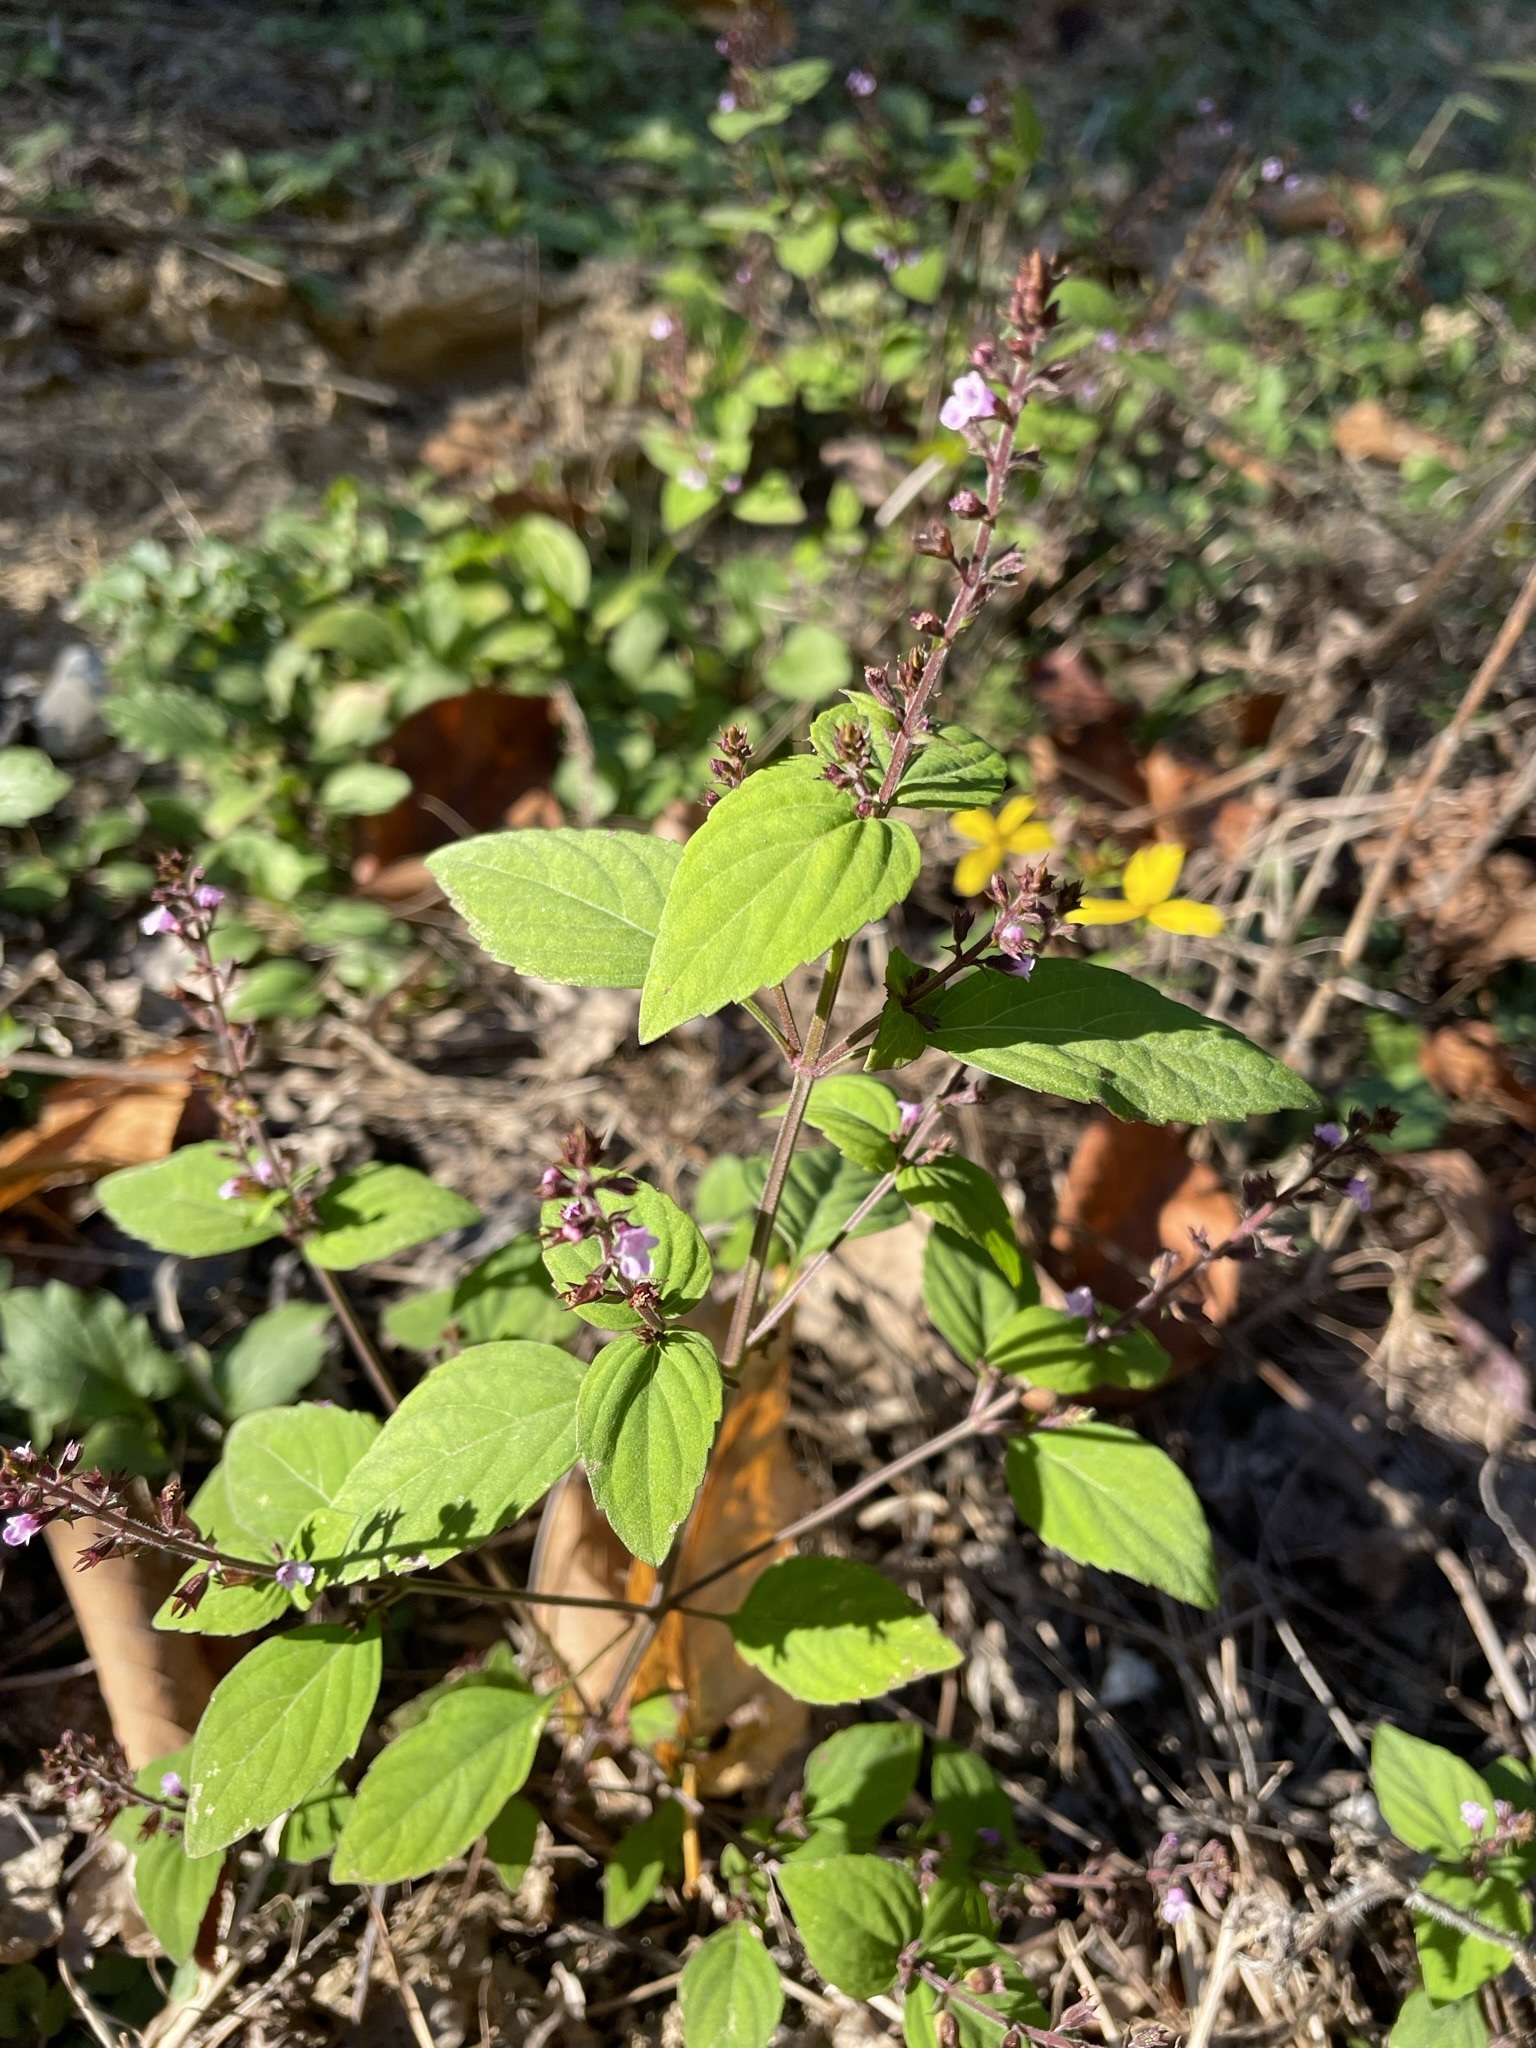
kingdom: Plantae
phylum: Tracheophyta
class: Magnoliopsida
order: Lamiales
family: Lamiaceae
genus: Mosla
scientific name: Mosla dianthera
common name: Miniature beefsteakplant
